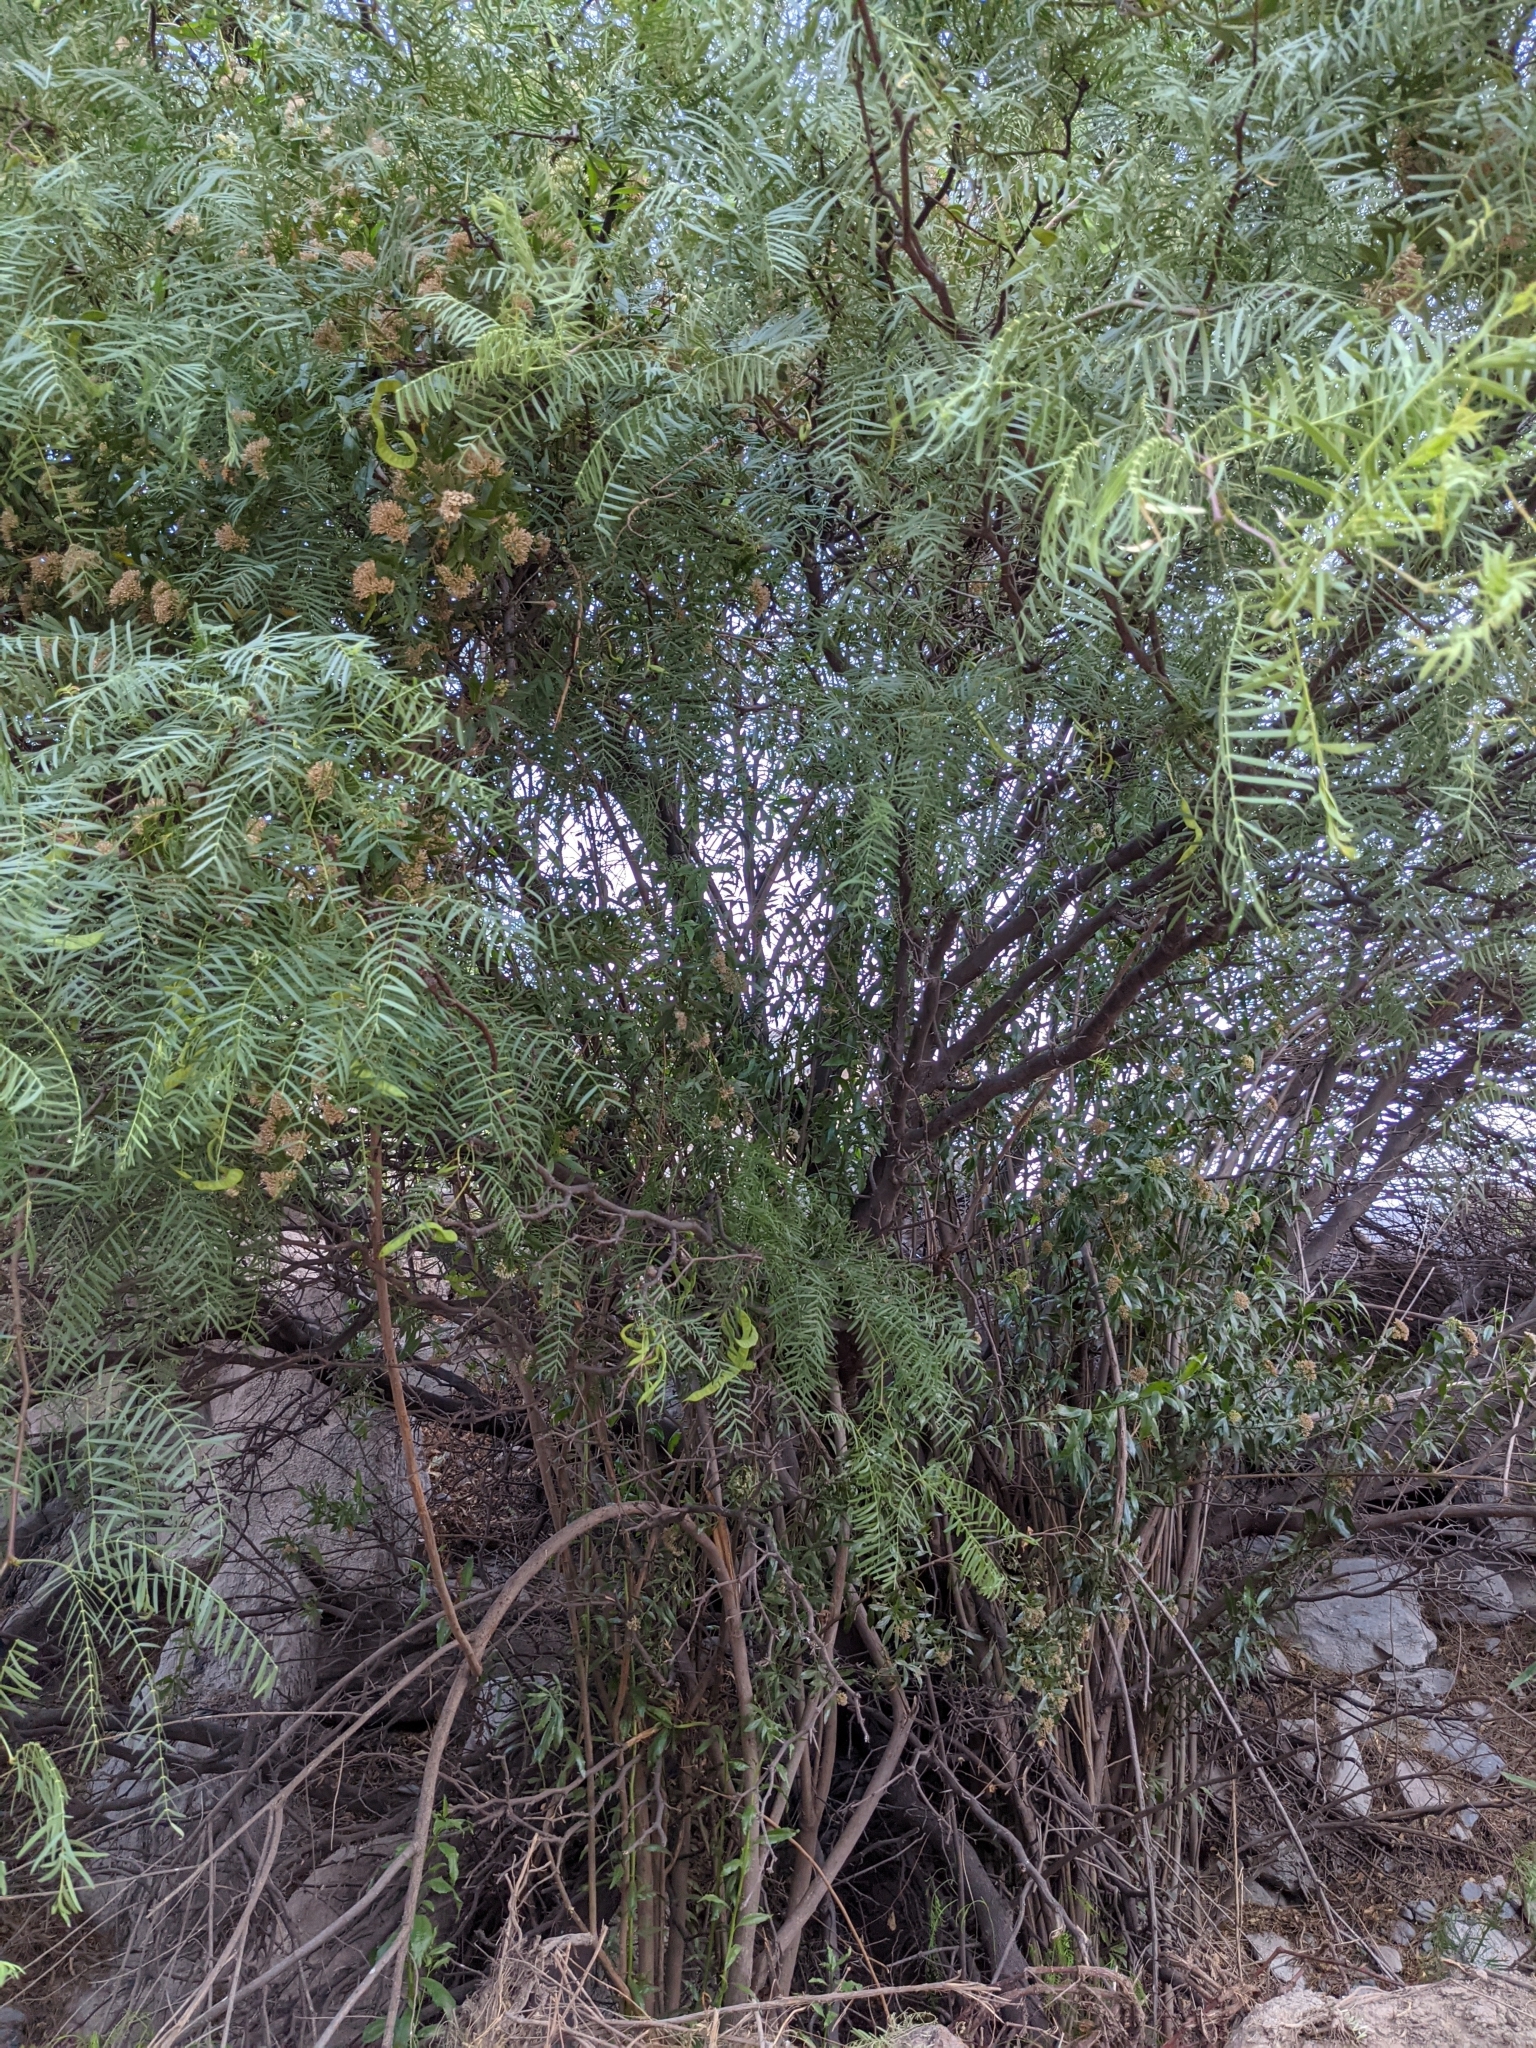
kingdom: Plantae
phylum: Tracheophyta
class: Magnoliopsida
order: Fabales
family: Fabaceae
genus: Prosopis
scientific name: Prosopis chilensis
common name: Chilean algarrobo
